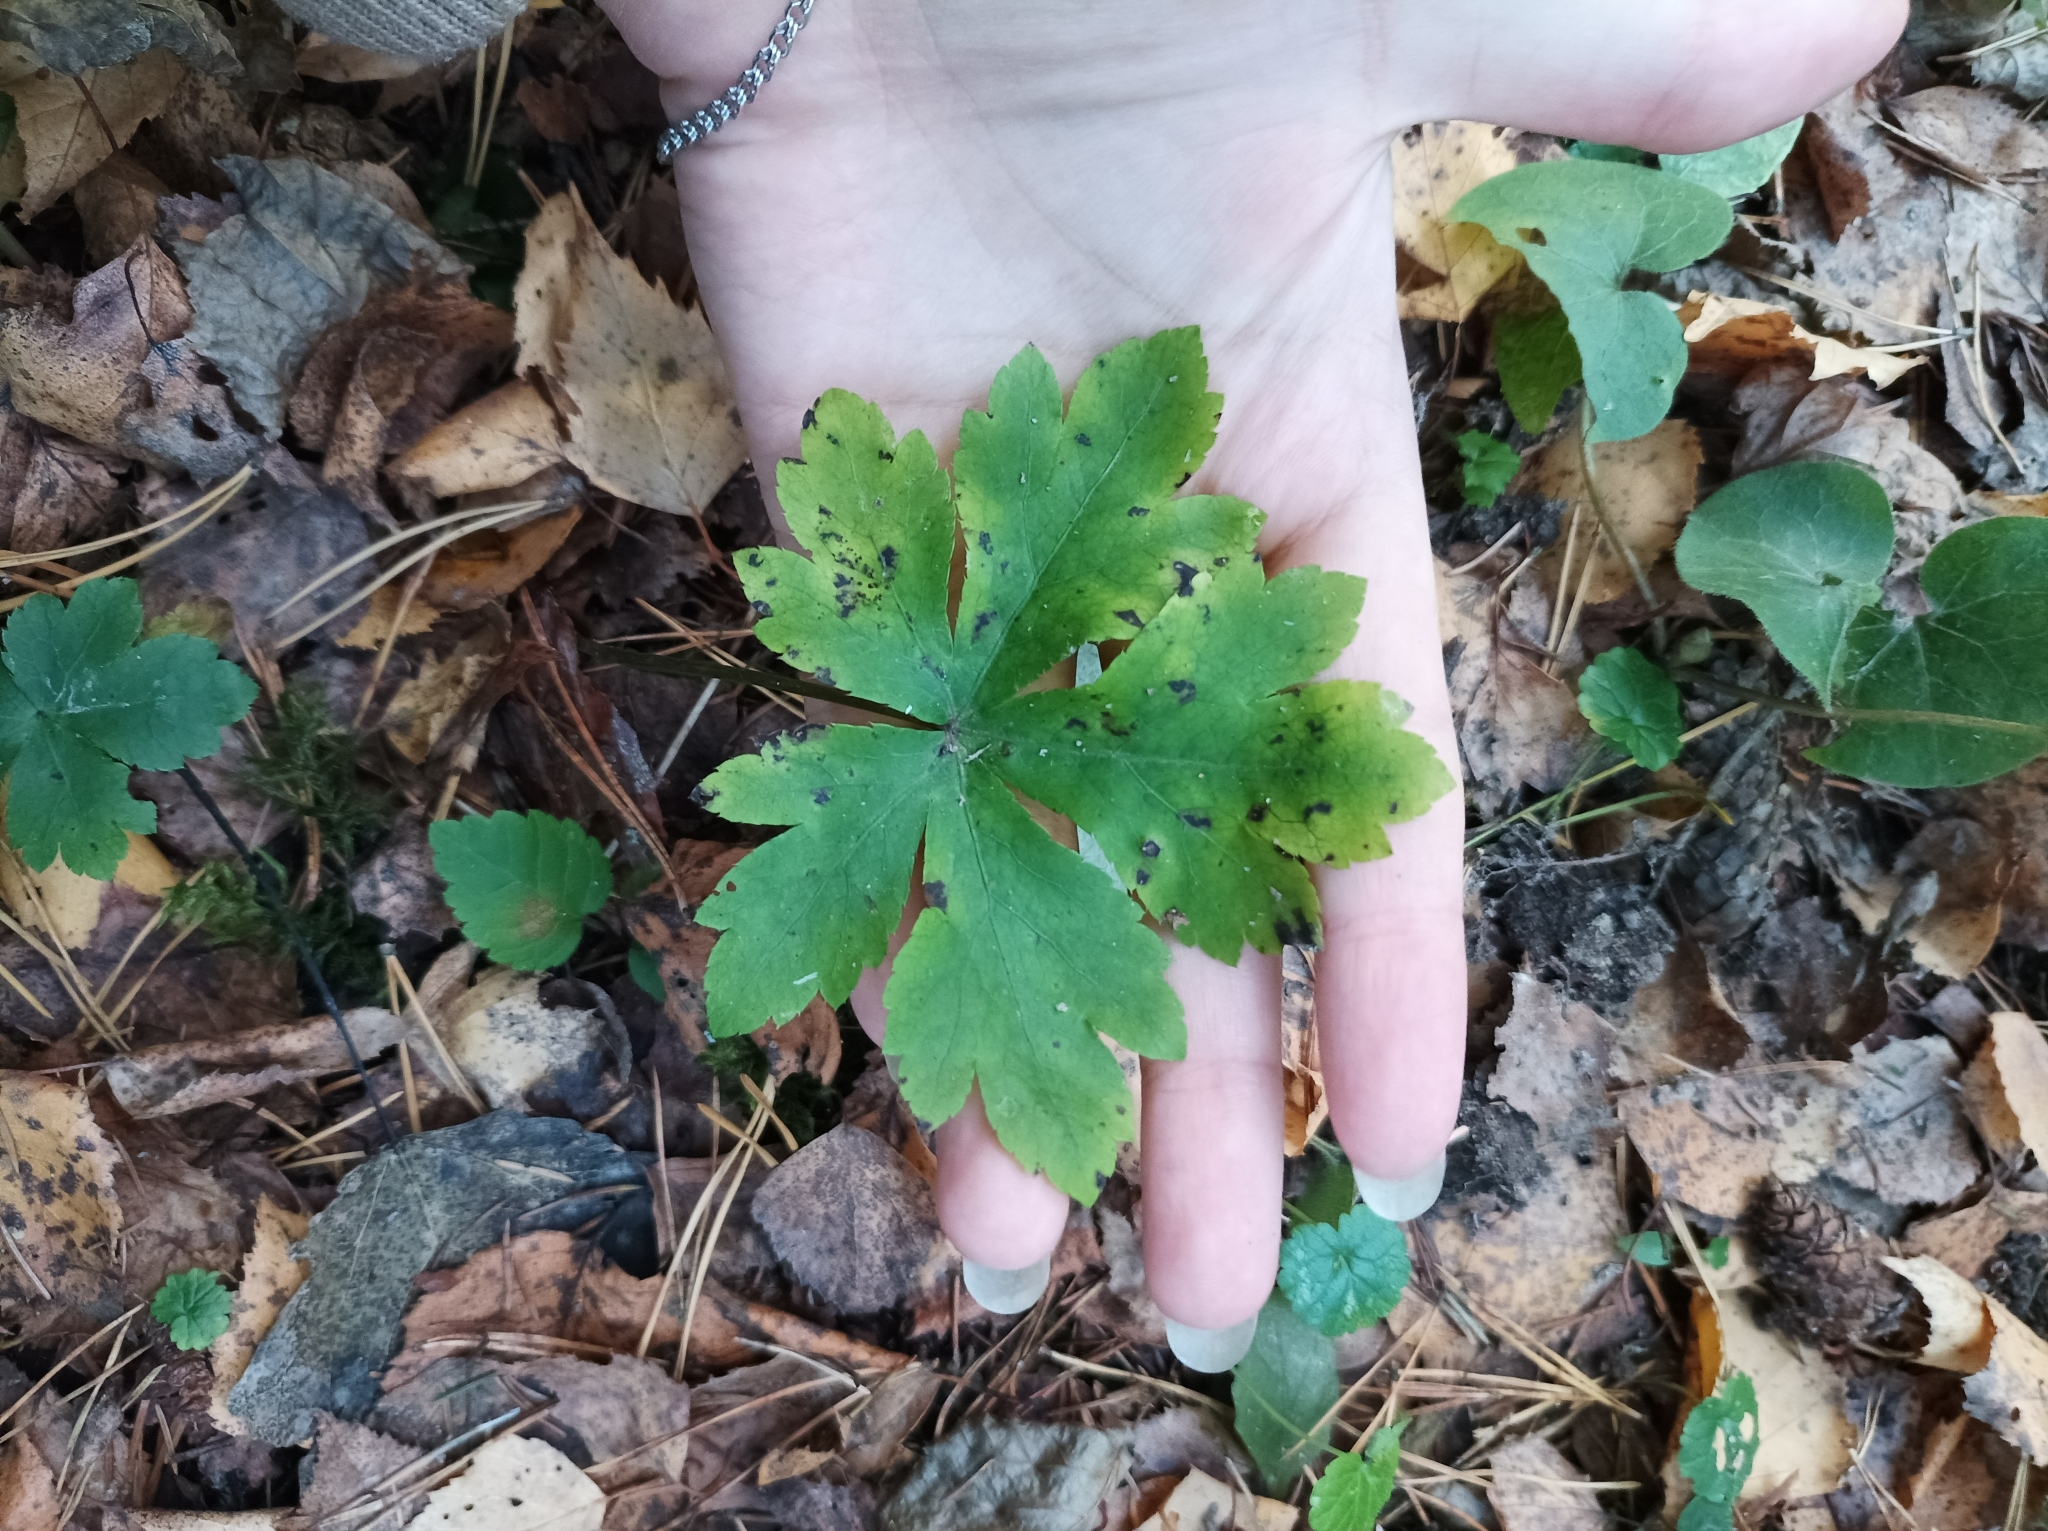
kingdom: Plantae
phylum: Tracheophyta
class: Magnoliopsida
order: Apiales
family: Apiaceae
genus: Sanicula
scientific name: Sanicula europaea
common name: Sanicle
